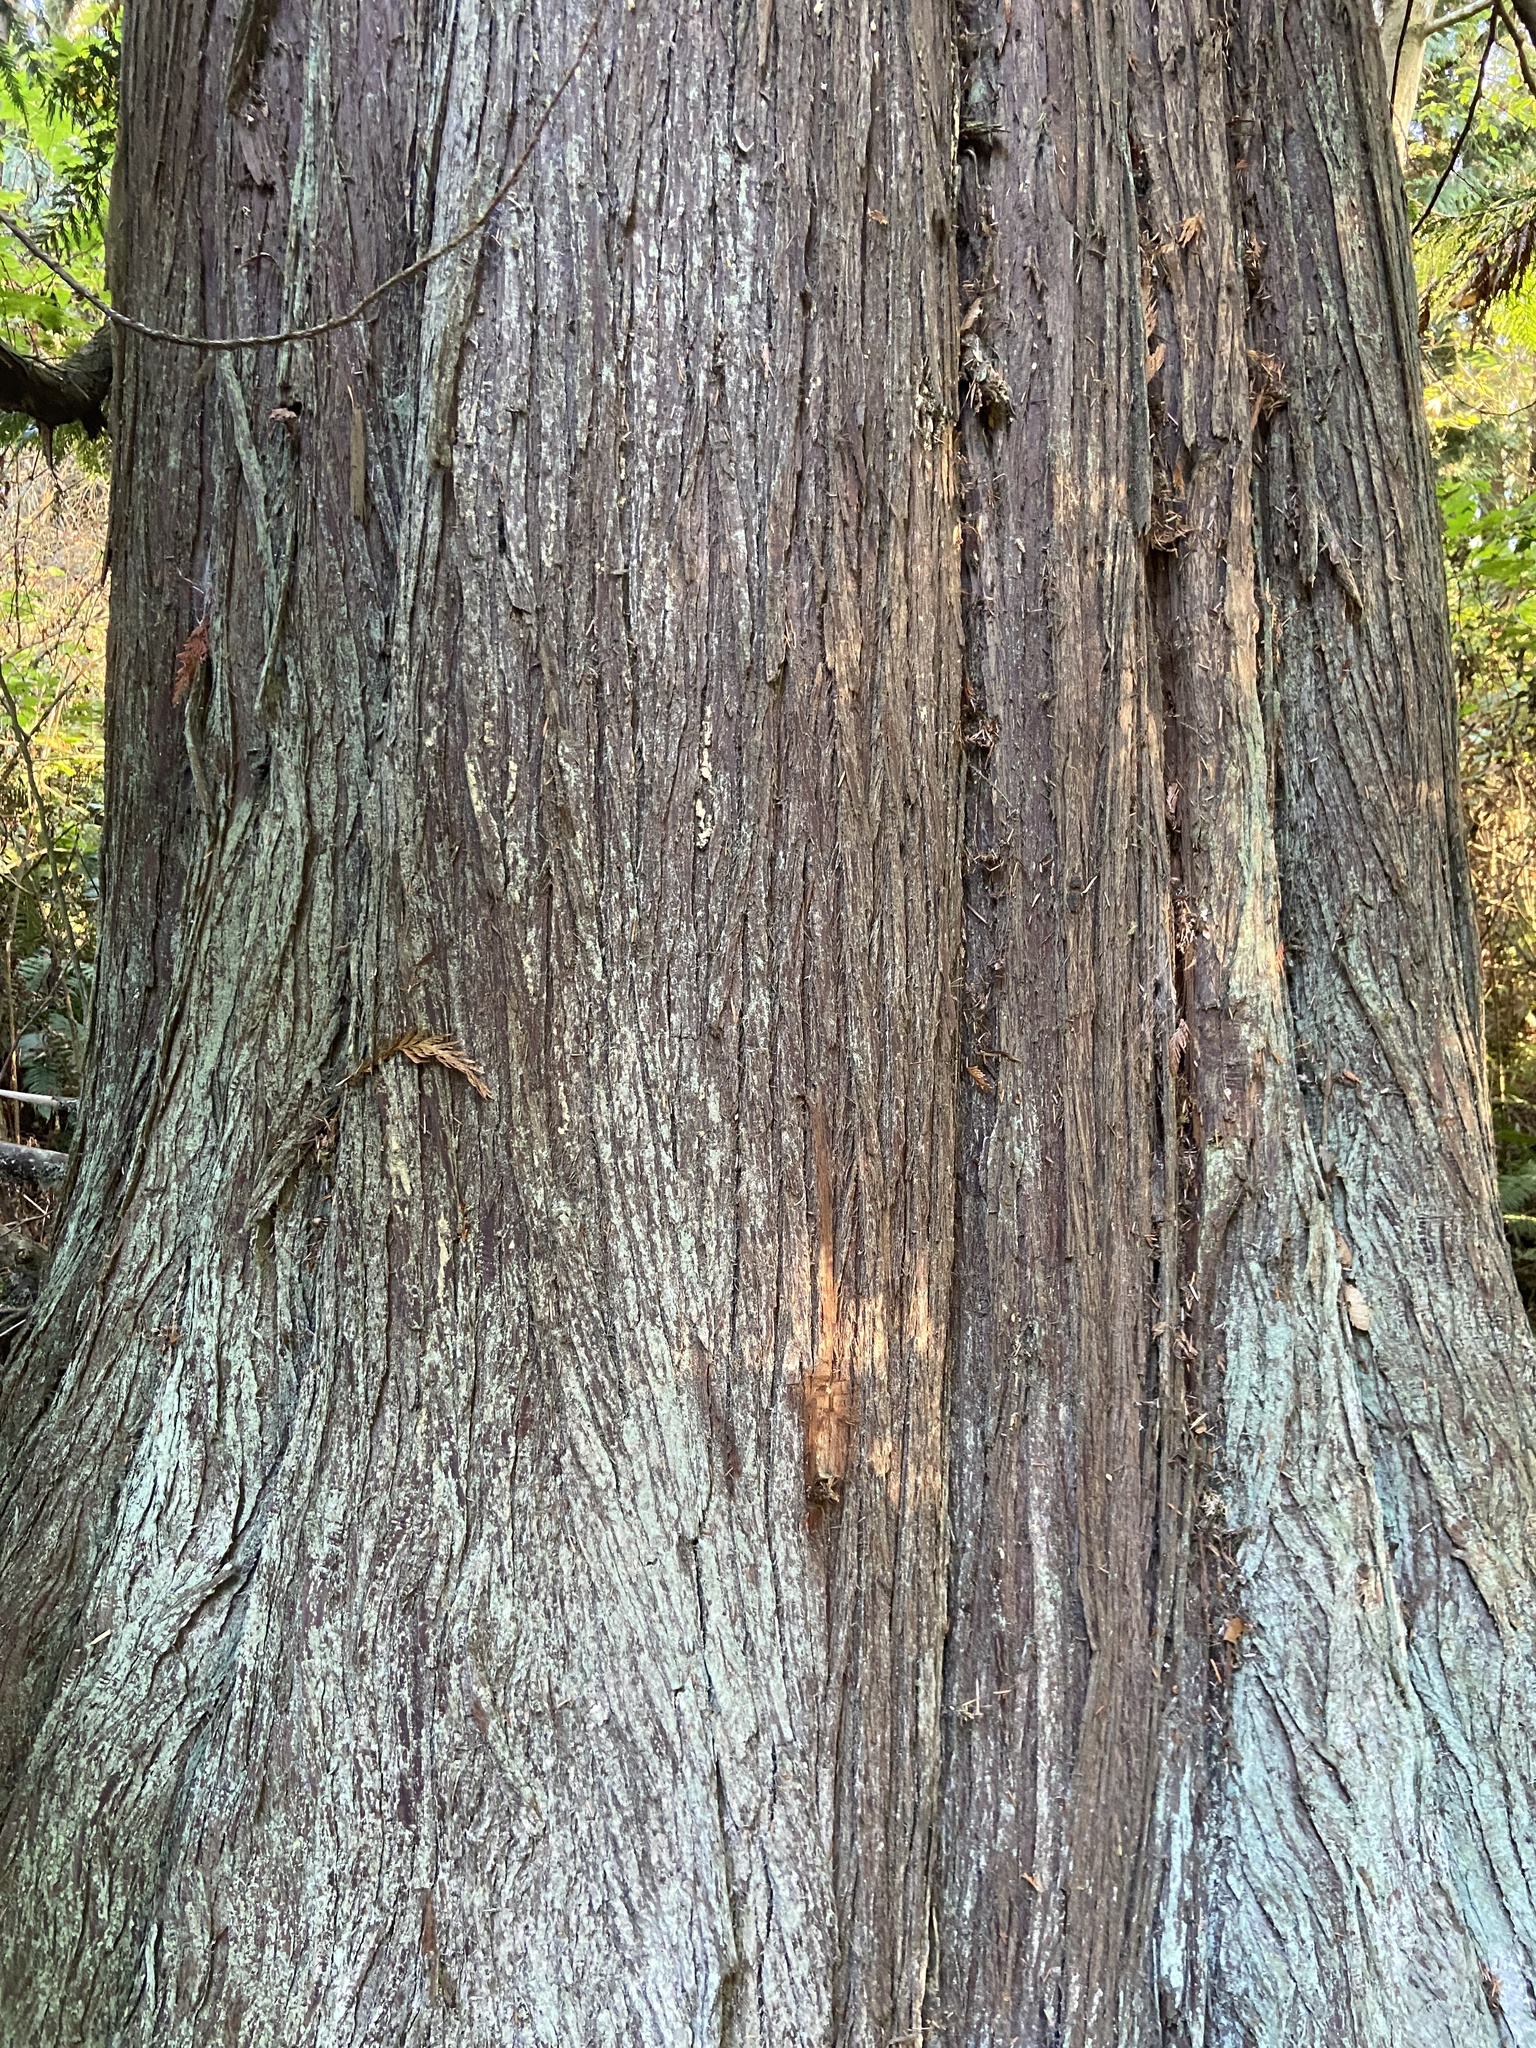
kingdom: Plantae
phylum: Tracheophyta
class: Pinopsida
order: Pinales
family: Cupressaceae
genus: Thuja
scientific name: Thuja plicata
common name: Western red-cedar
